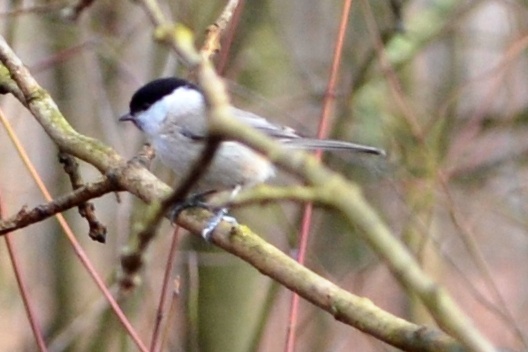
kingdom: Animalia
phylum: Chordata
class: Aves
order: Passeriformes
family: Paridae
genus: Poecile
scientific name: Poecile palustris
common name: Marsh tit
